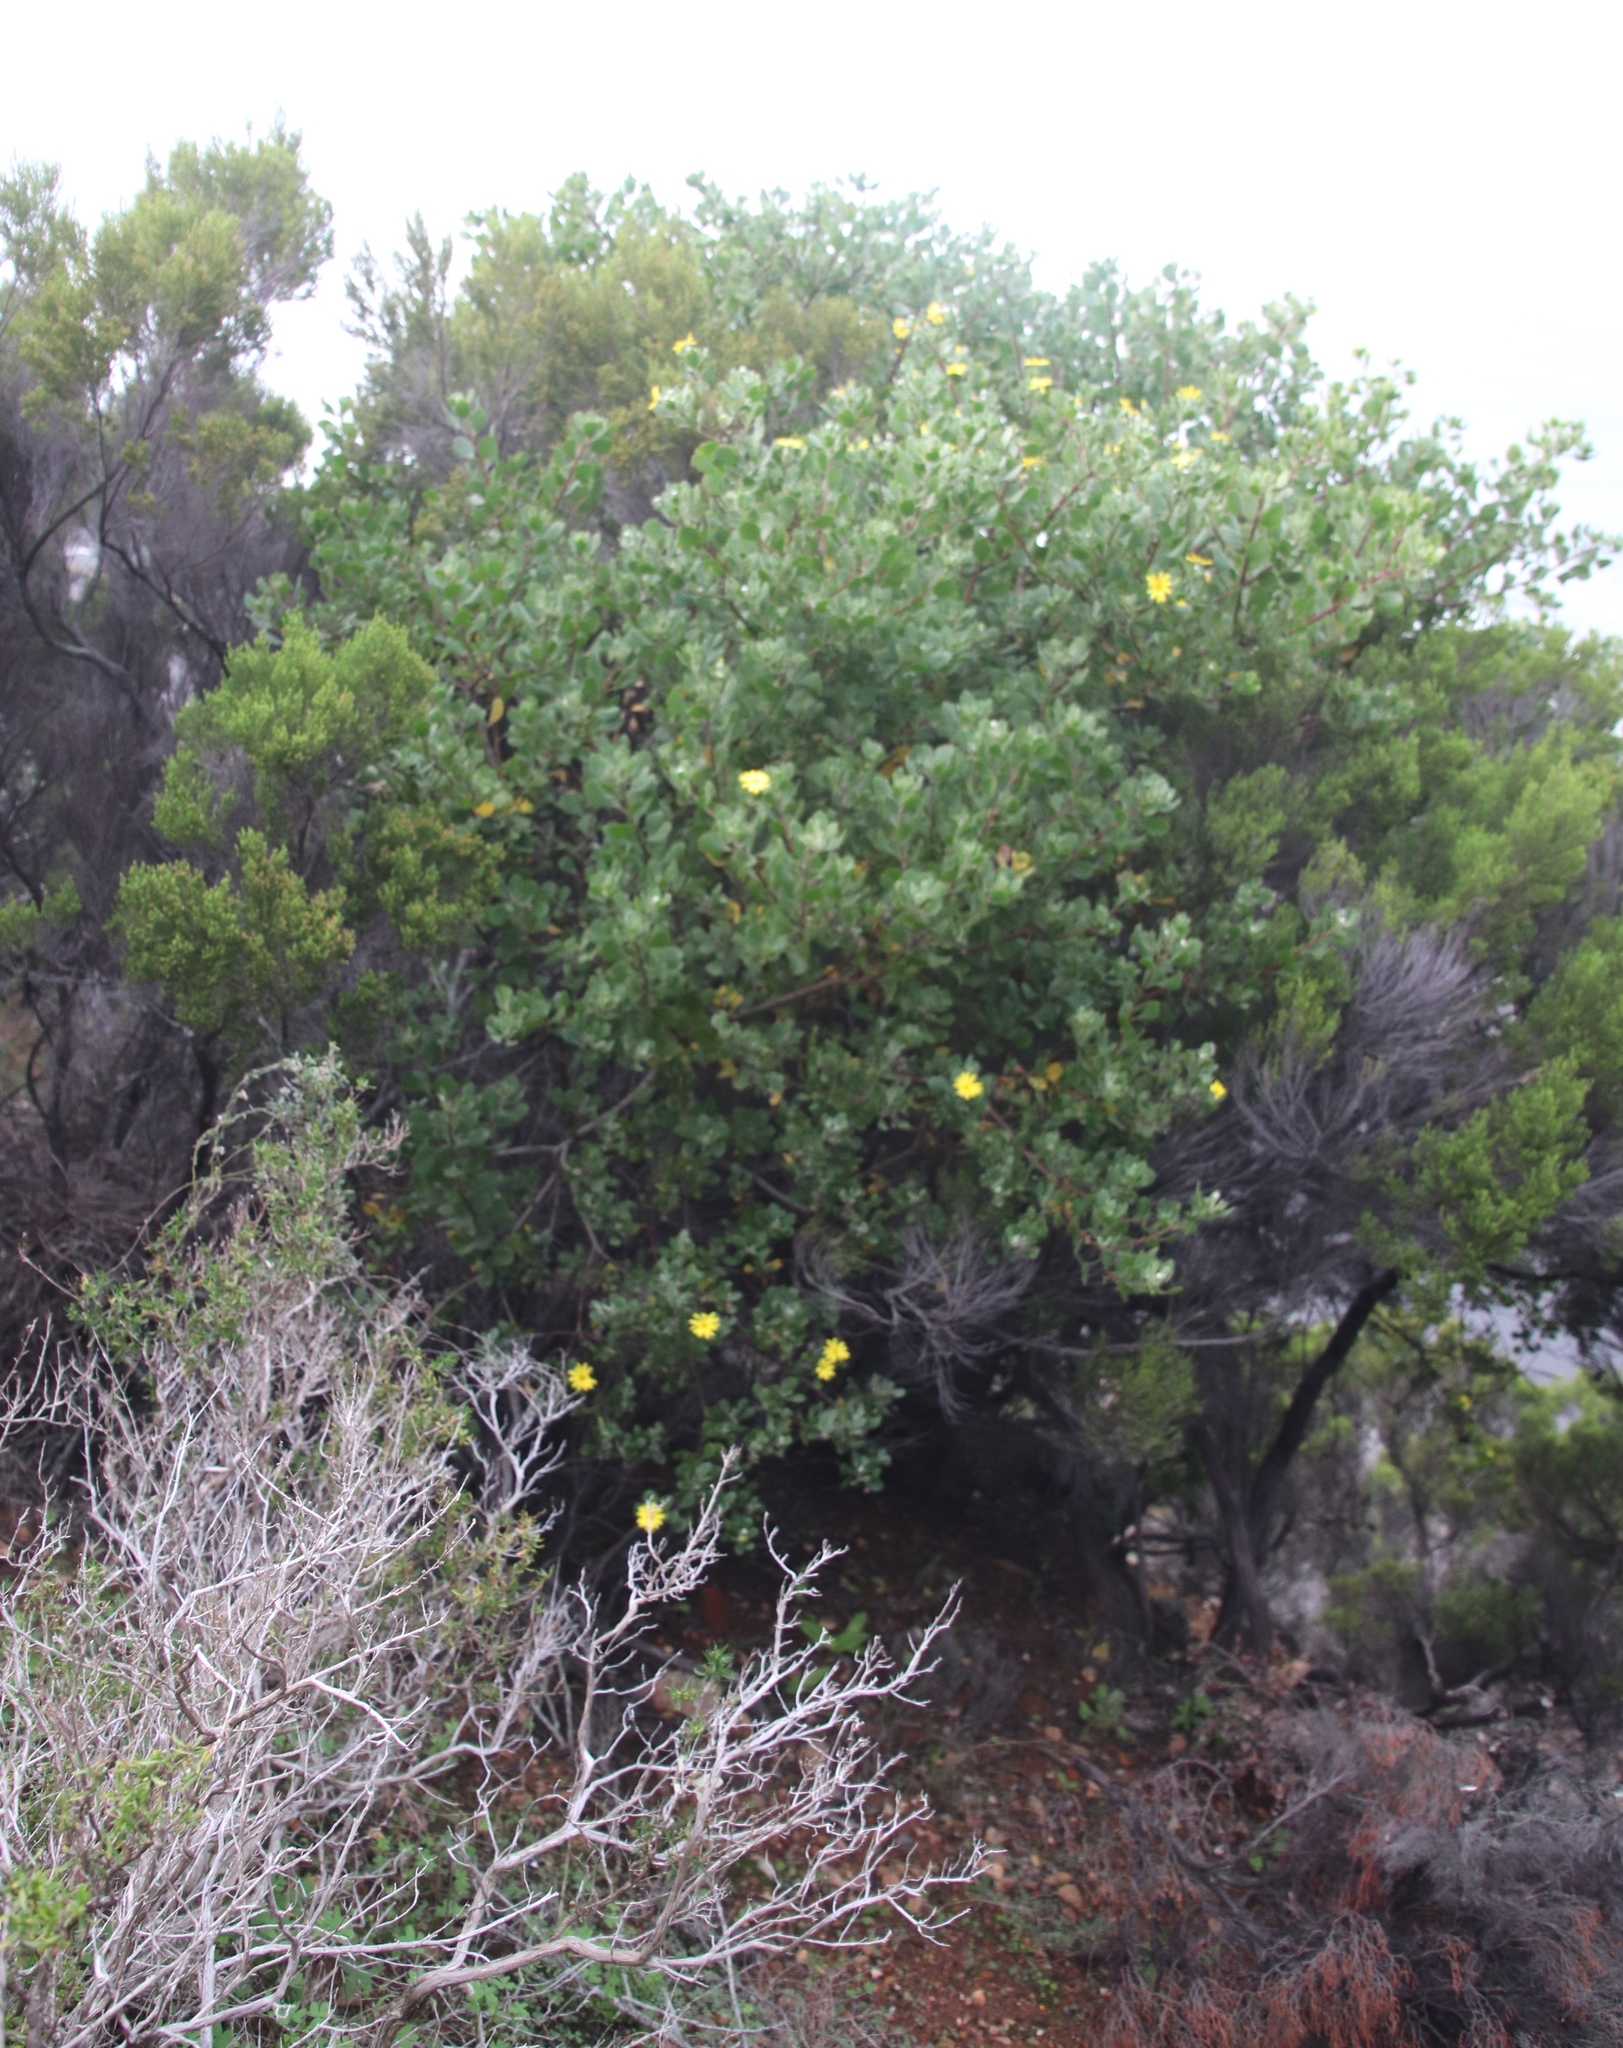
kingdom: Plantae
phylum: Tracheophyta
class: Magnoliopsida
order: Asterales
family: Asteraceae
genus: Osteospermum
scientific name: Osteospermum moniliferum
